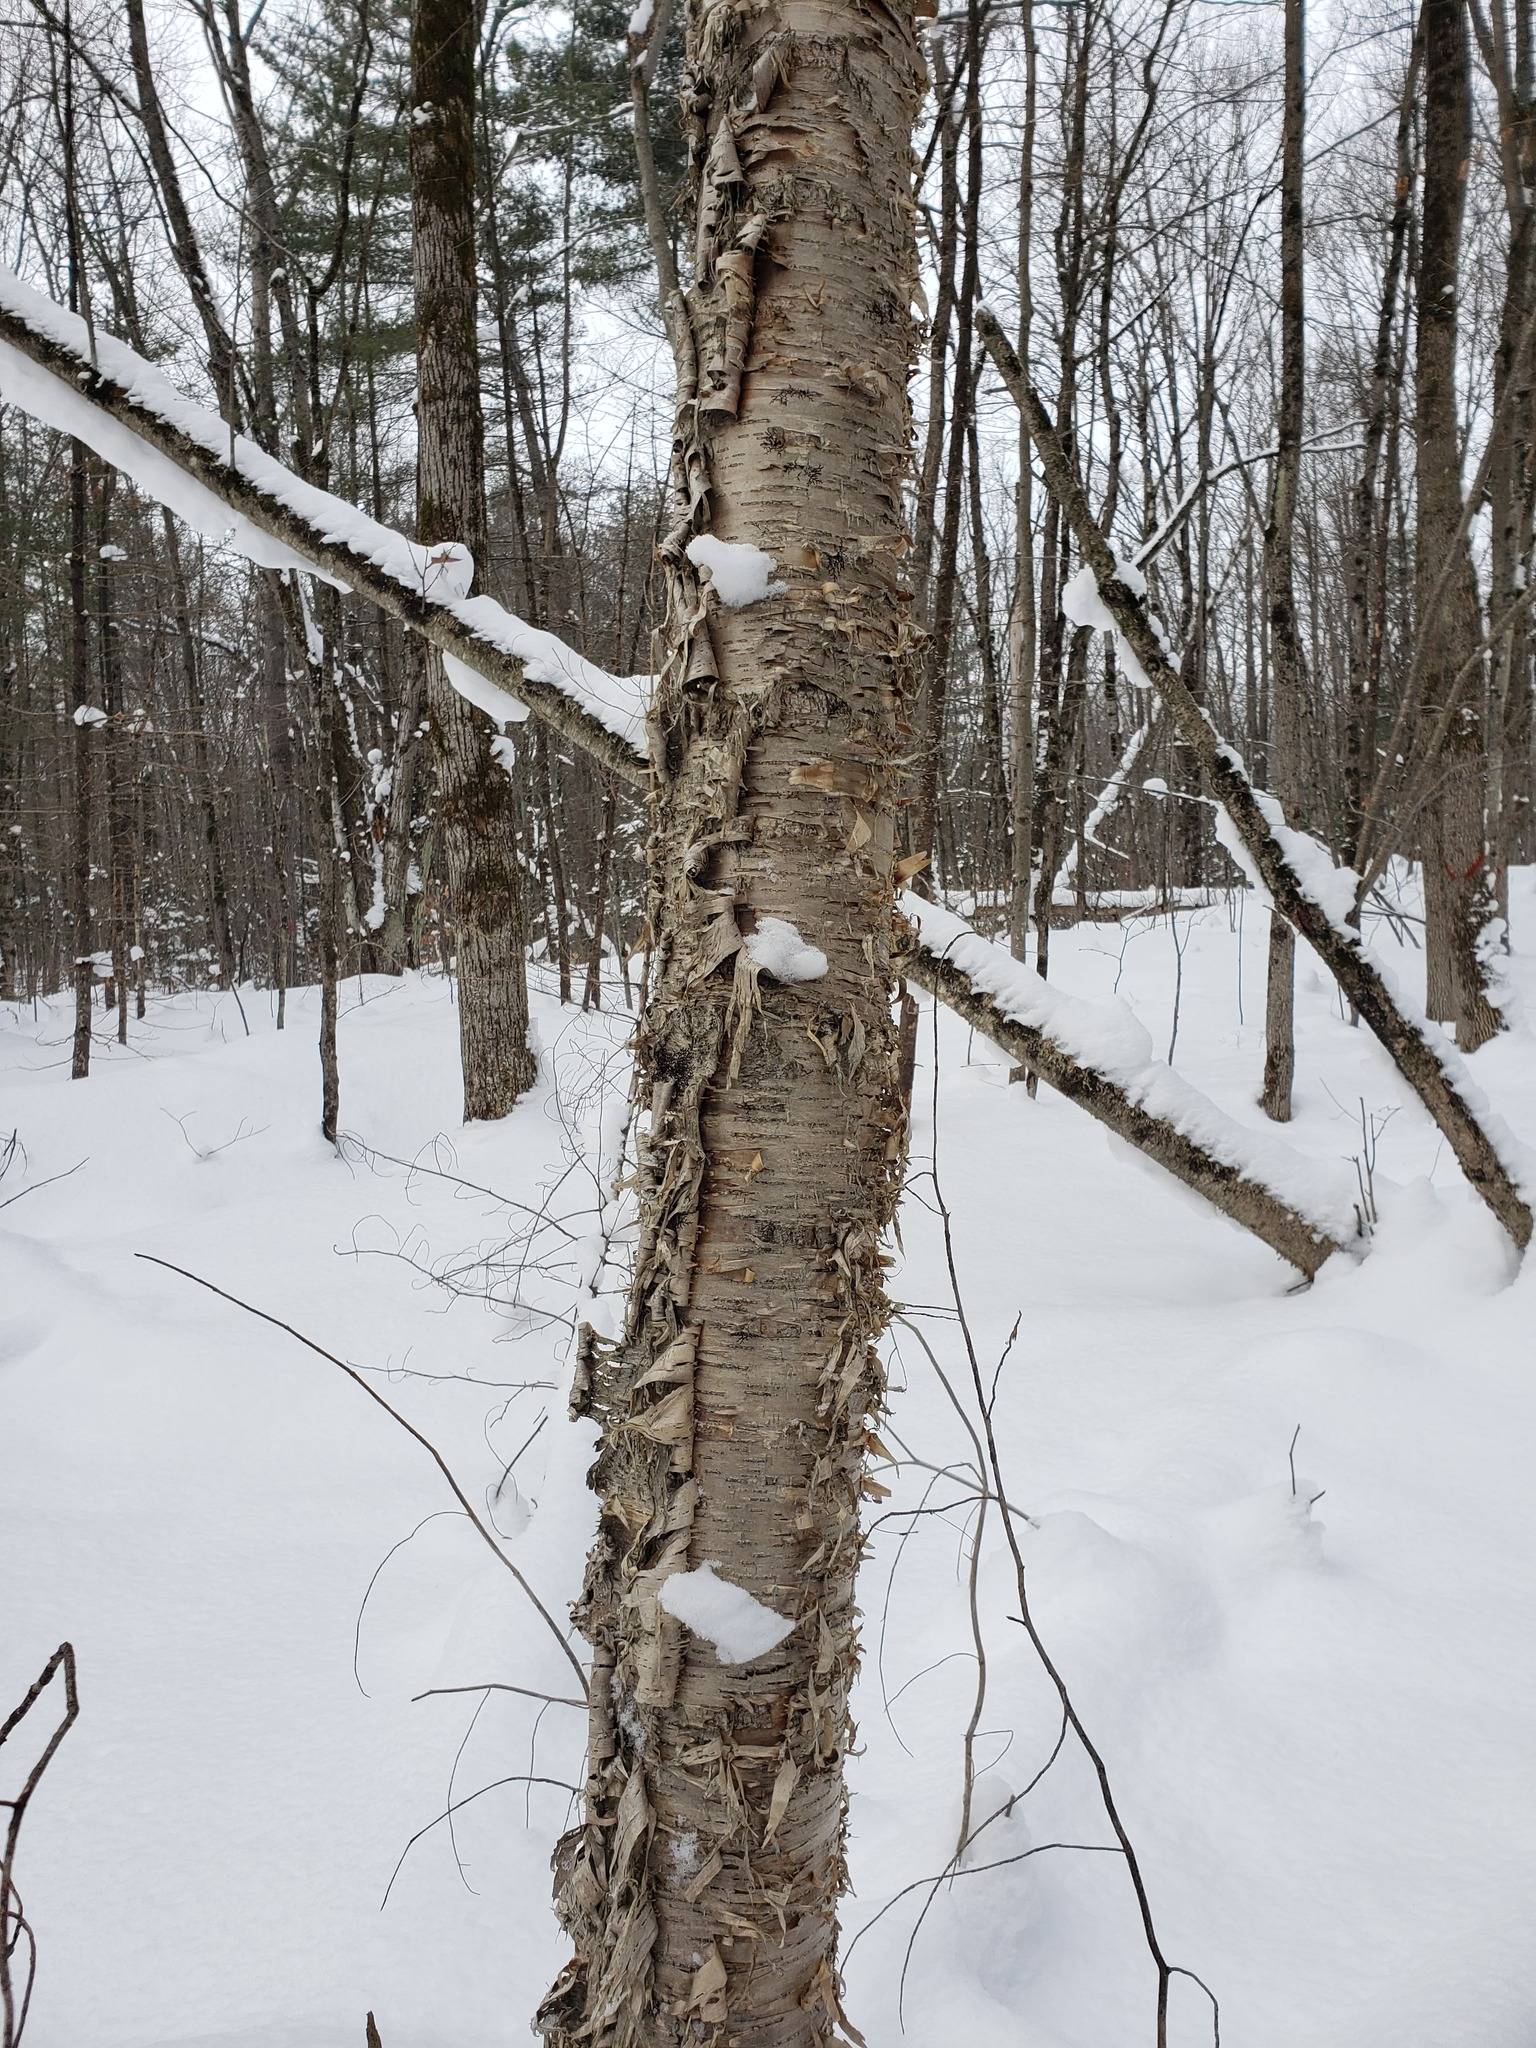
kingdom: Plantae
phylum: Tracheophyta
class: Magnoliopsida
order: Fagales
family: Betulaceae
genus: Betula
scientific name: Betula alleghaniensis
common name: Yellow birch
